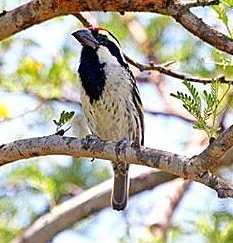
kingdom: Animalia
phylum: Chordata
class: Aves
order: Piciformes
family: Lybiidae
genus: Tricholaema
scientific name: Tricholaema leucomelas
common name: Acacia pied barbet
